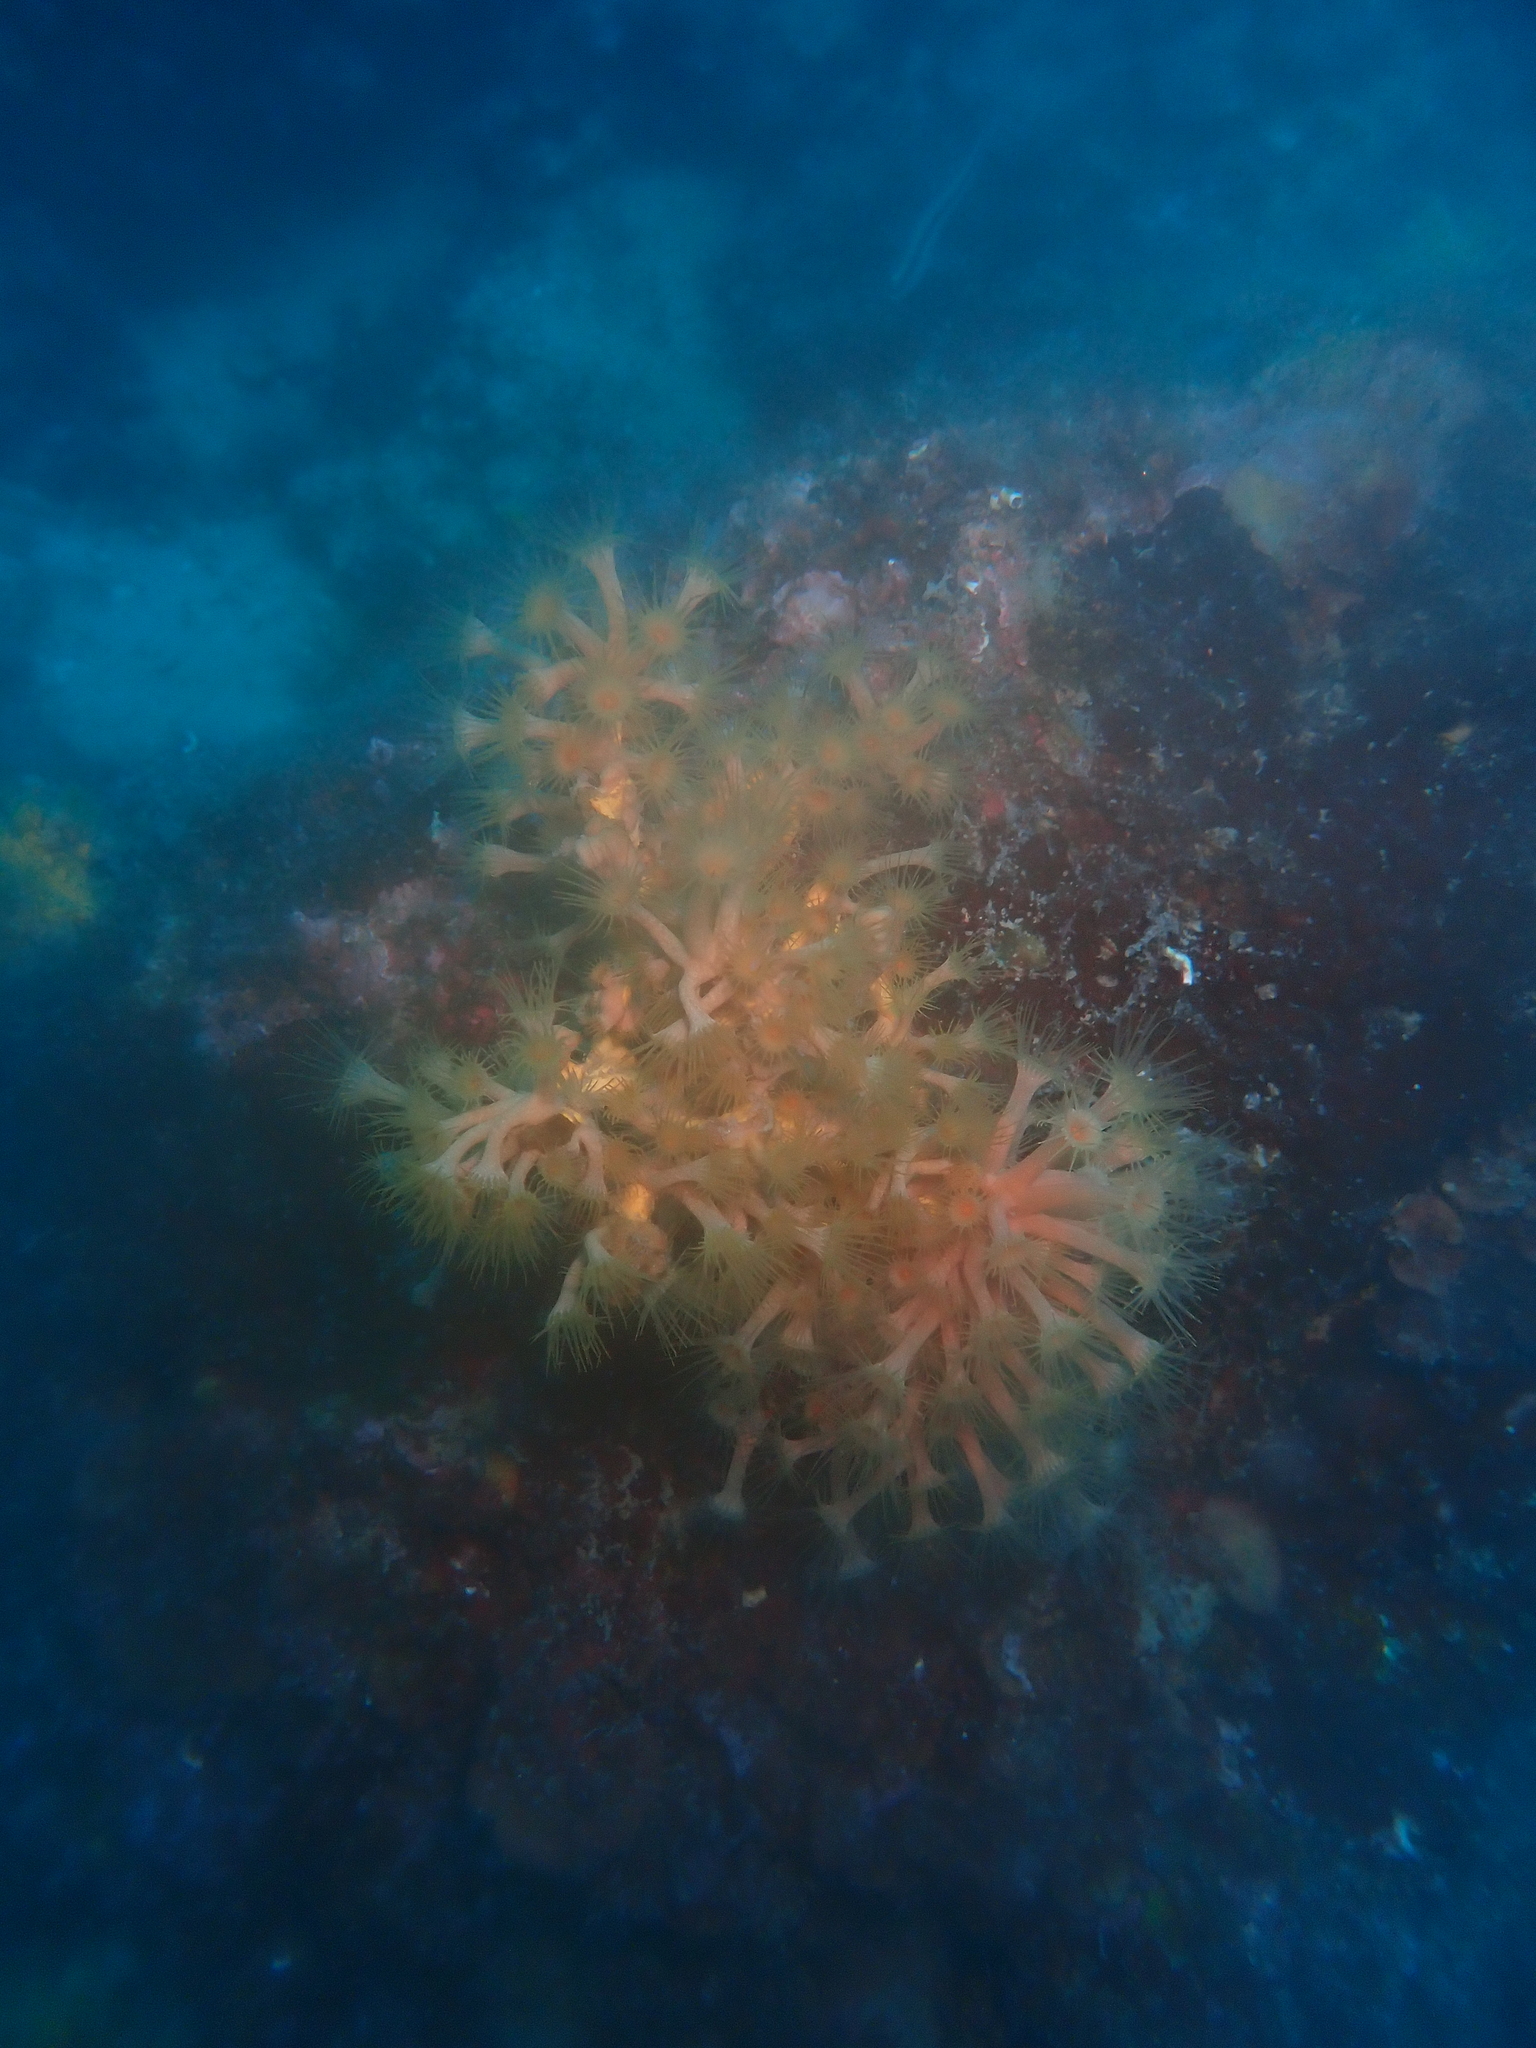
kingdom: Animalia
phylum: Cnidaria
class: Anthozoa
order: Zoantharia
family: Parazoanthidae
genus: Parazoanthus
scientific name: Parazoanthus axinellae
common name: Yellow cluster anemone
